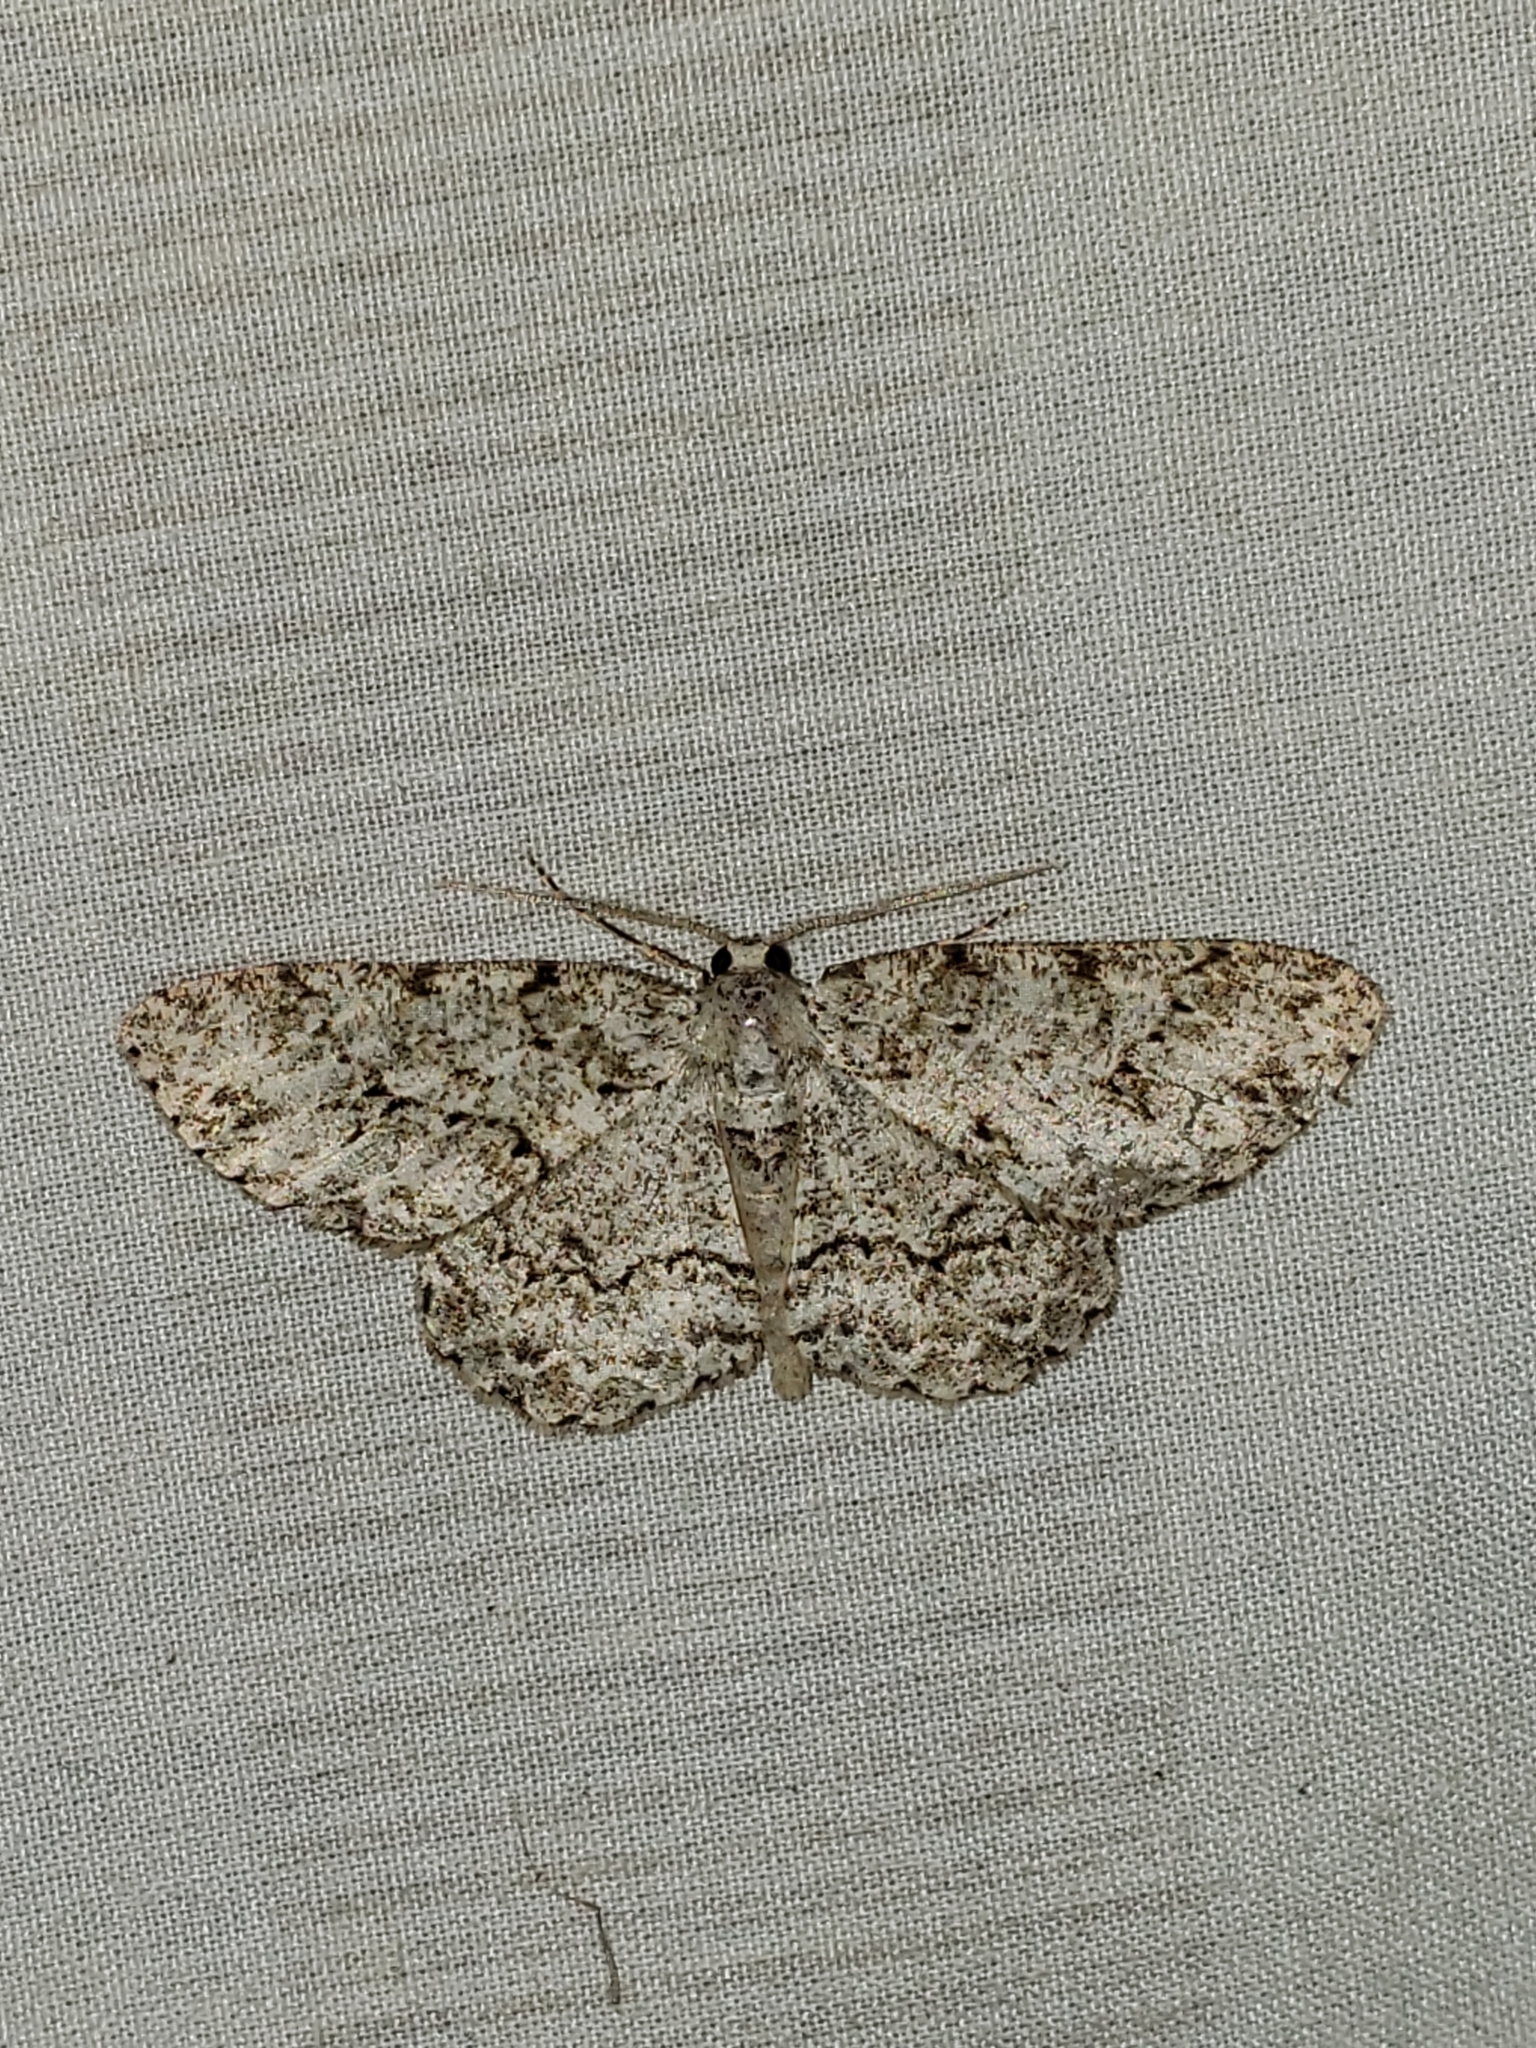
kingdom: Animalia
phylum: Arthropoda
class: Insecta
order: Lepidoptera
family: Geometridae
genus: Ectropis
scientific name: Ectropis crepuscularia
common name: Engrailed
